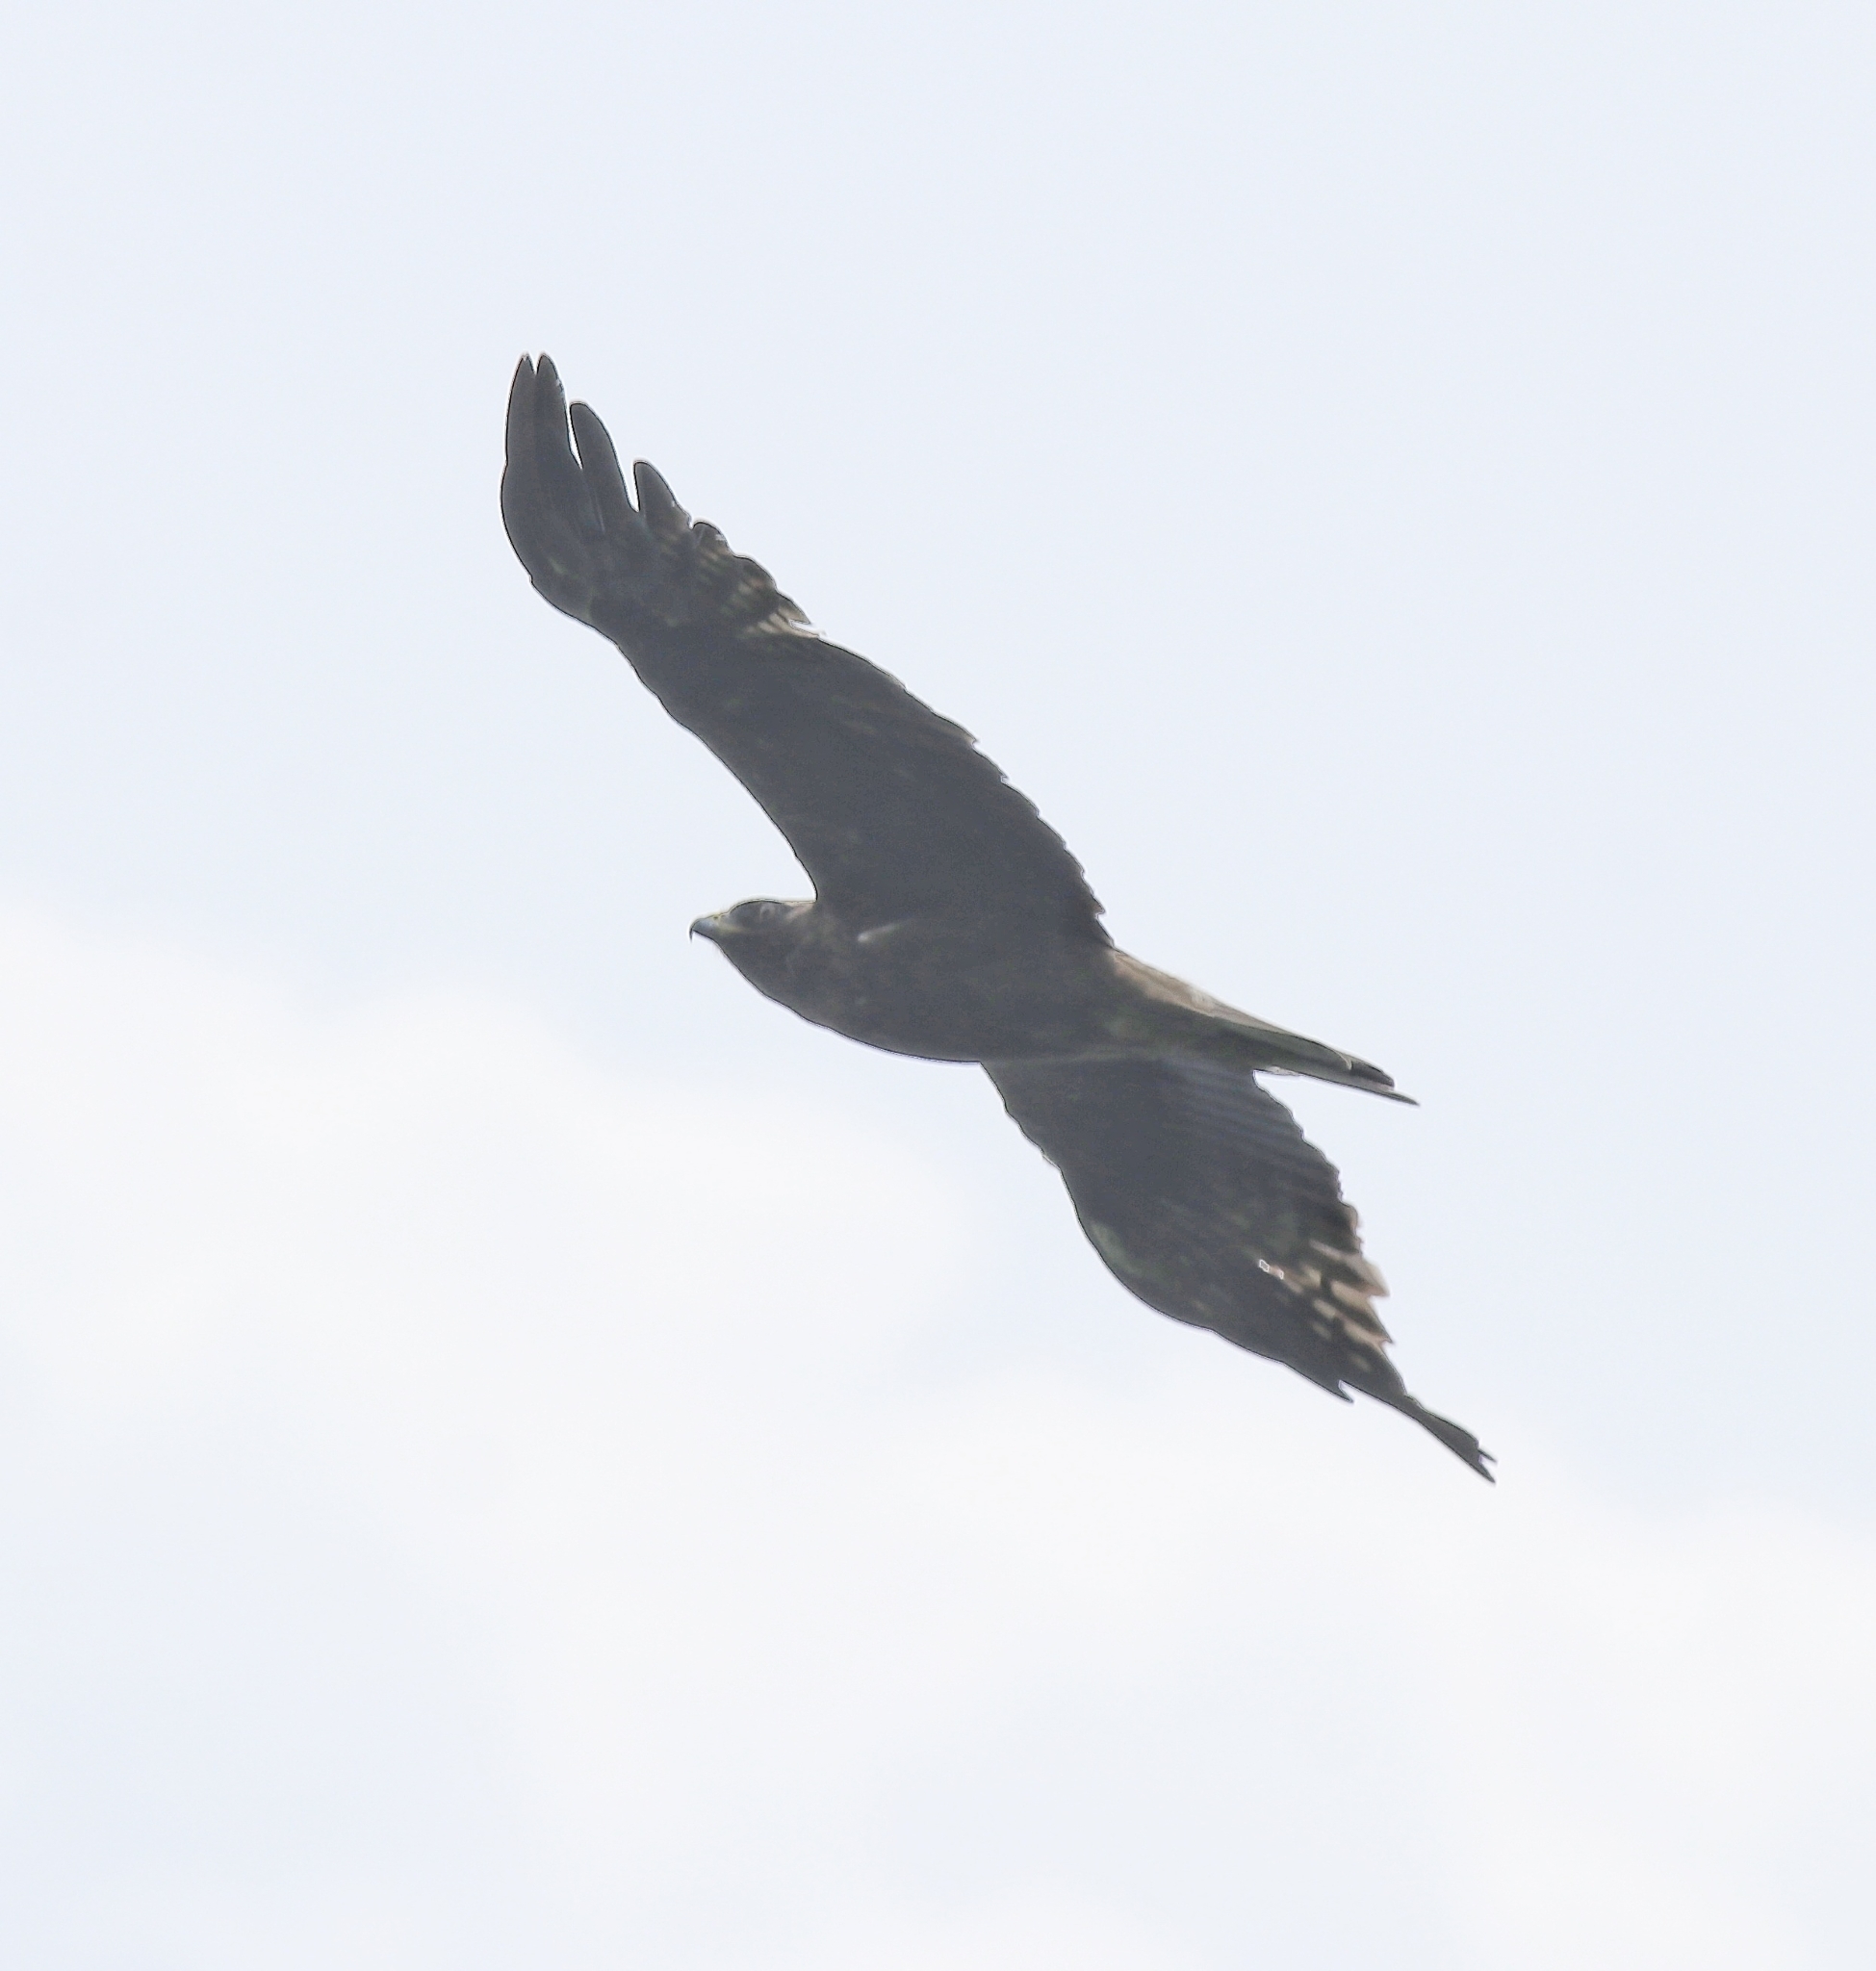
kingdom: Animalia
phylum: Chordata
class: Aves
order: Accipitriformes
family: Accipitridae
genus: Hieraaetus
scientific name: Hieraaetus pennatus
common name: Booted eagle
